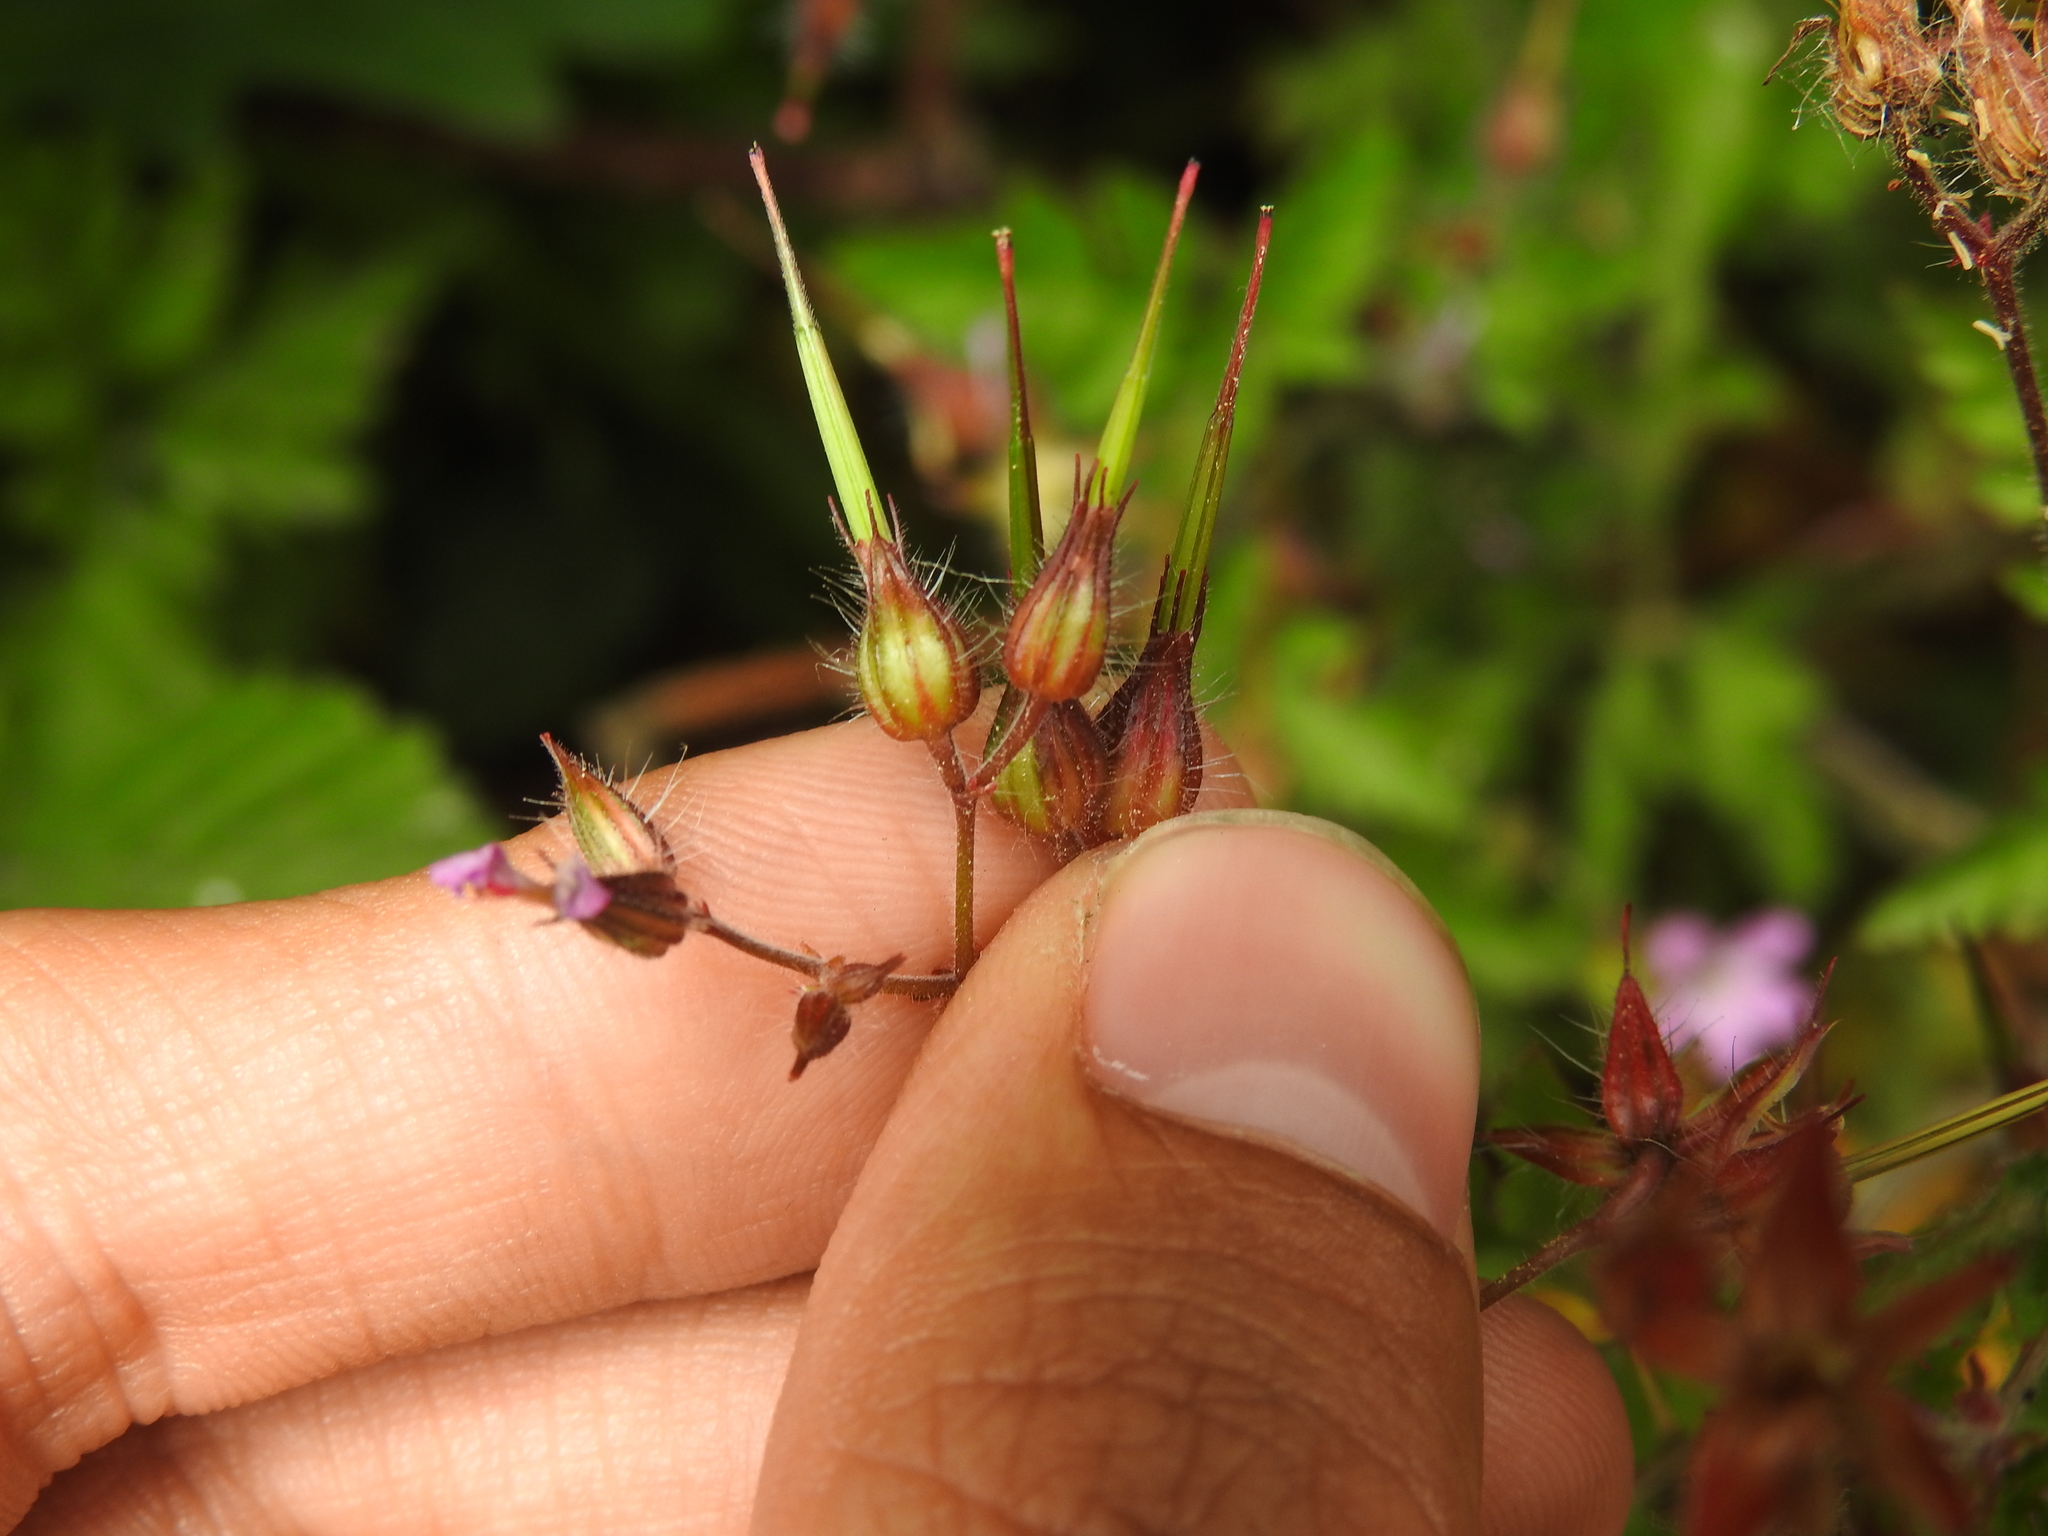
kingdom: Plantae
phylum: Tracheophyta
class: Magnoliopsida
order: Geraniales
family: Geraniaceae
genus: Geranium
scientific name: Geranium robertianum
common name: Herb-robert
